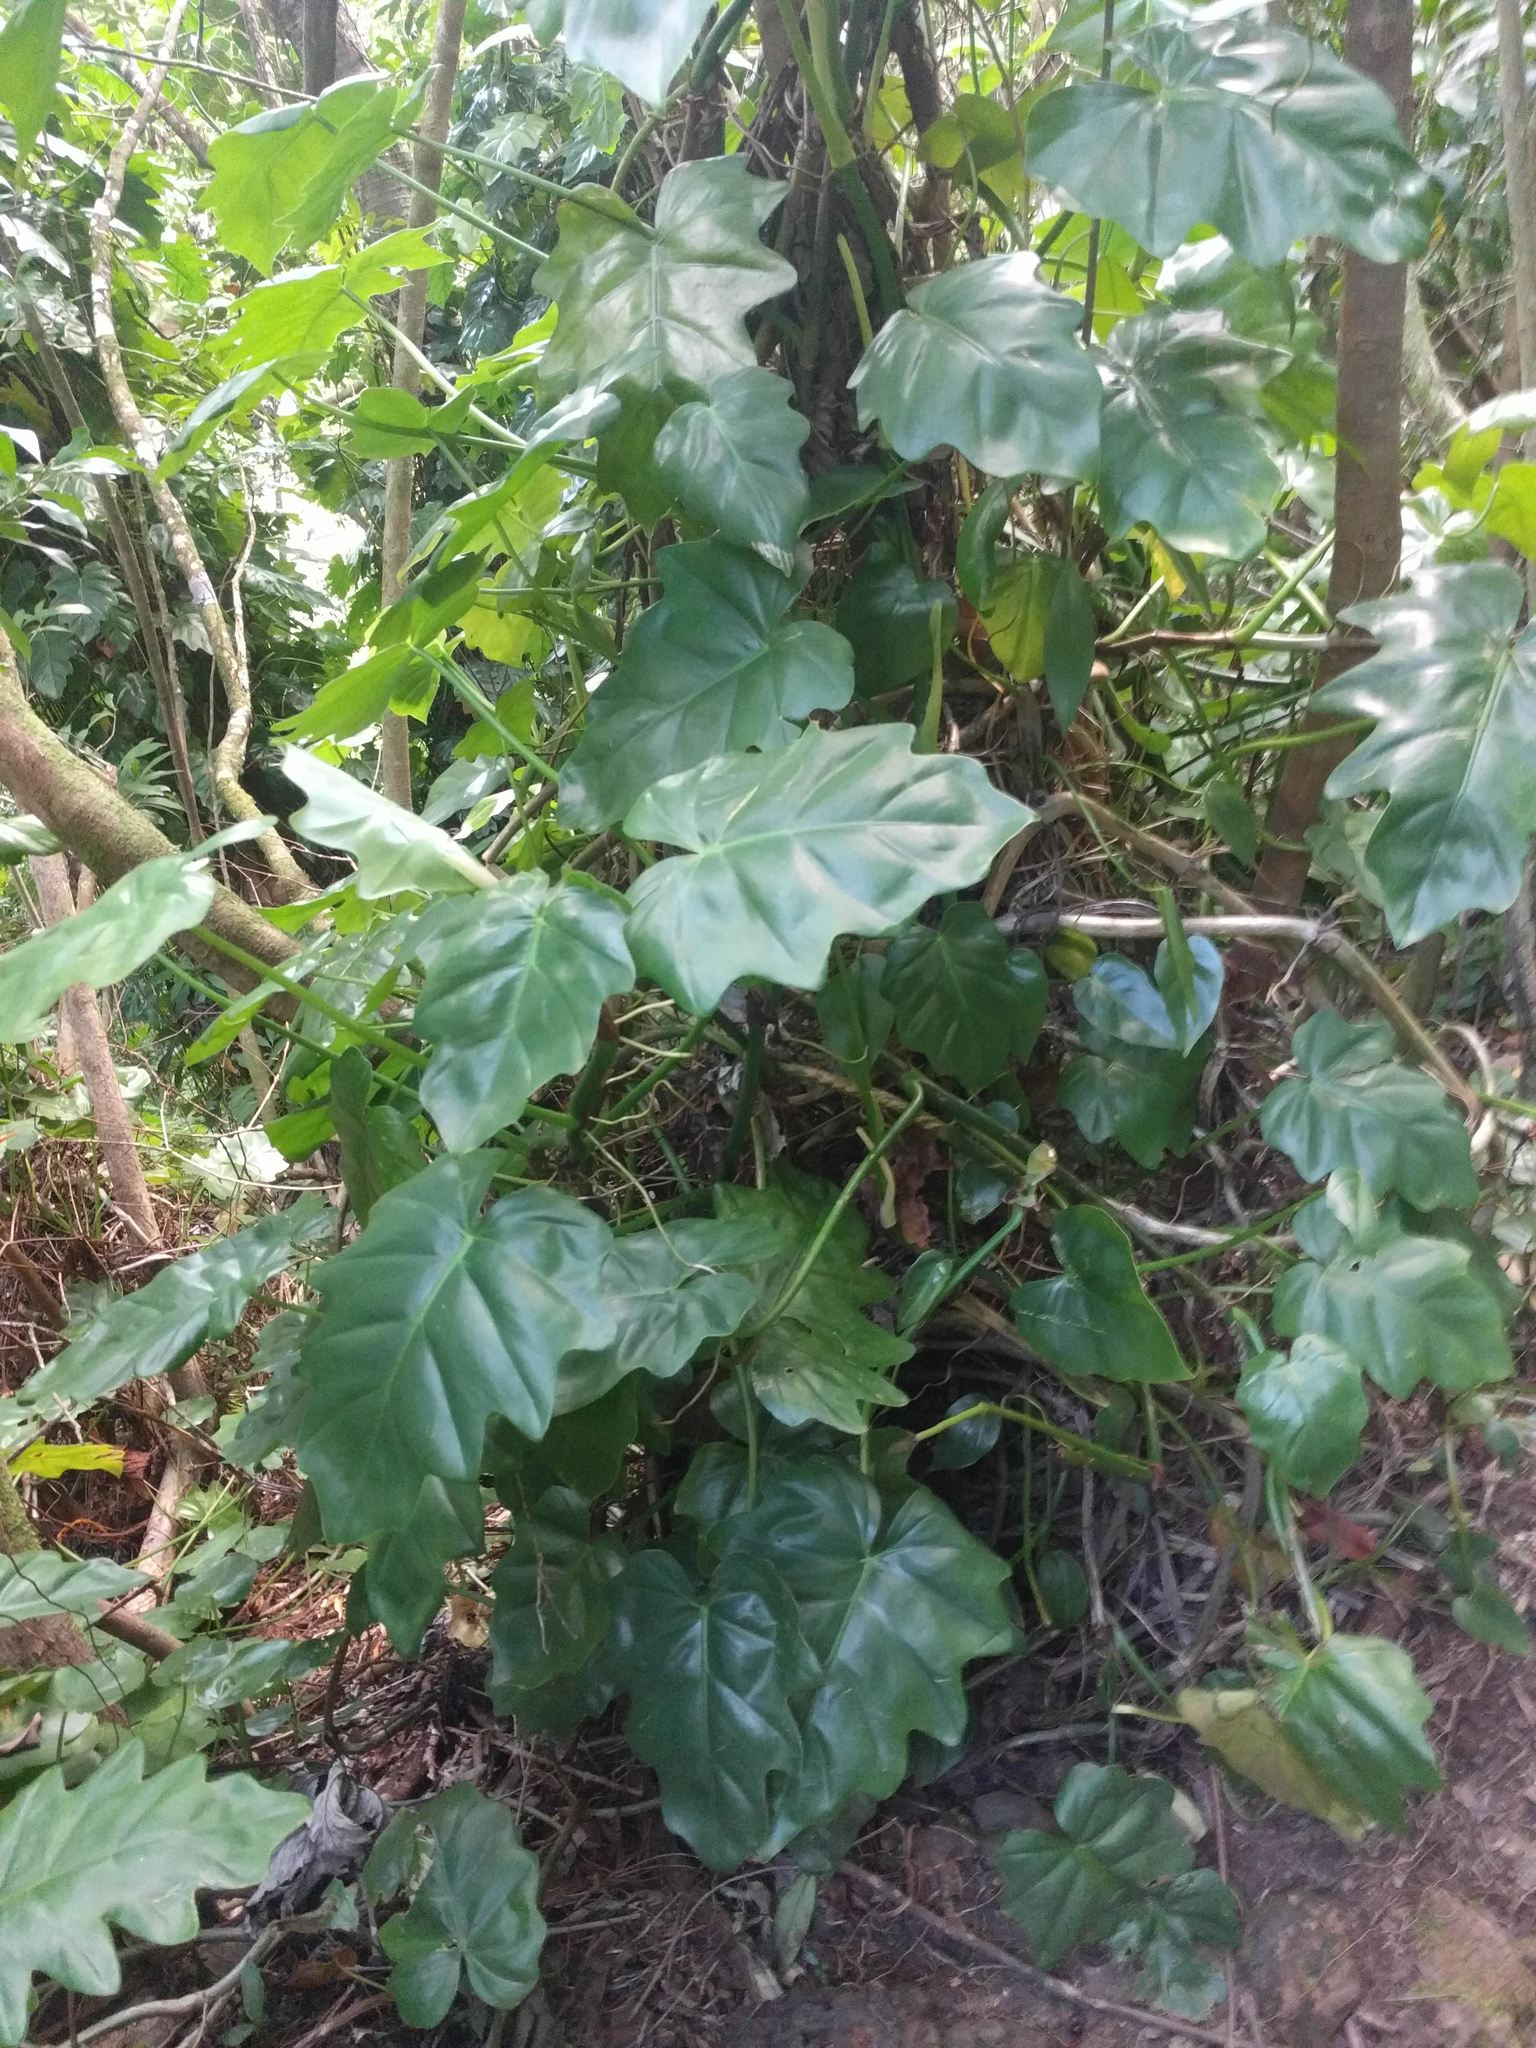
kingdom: Plantae
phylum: Tracheophyta
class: Liliopsida
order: Alismatales
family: Araceae
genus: Philodendron
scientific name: Philodendron lacerum
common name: Philodendron
